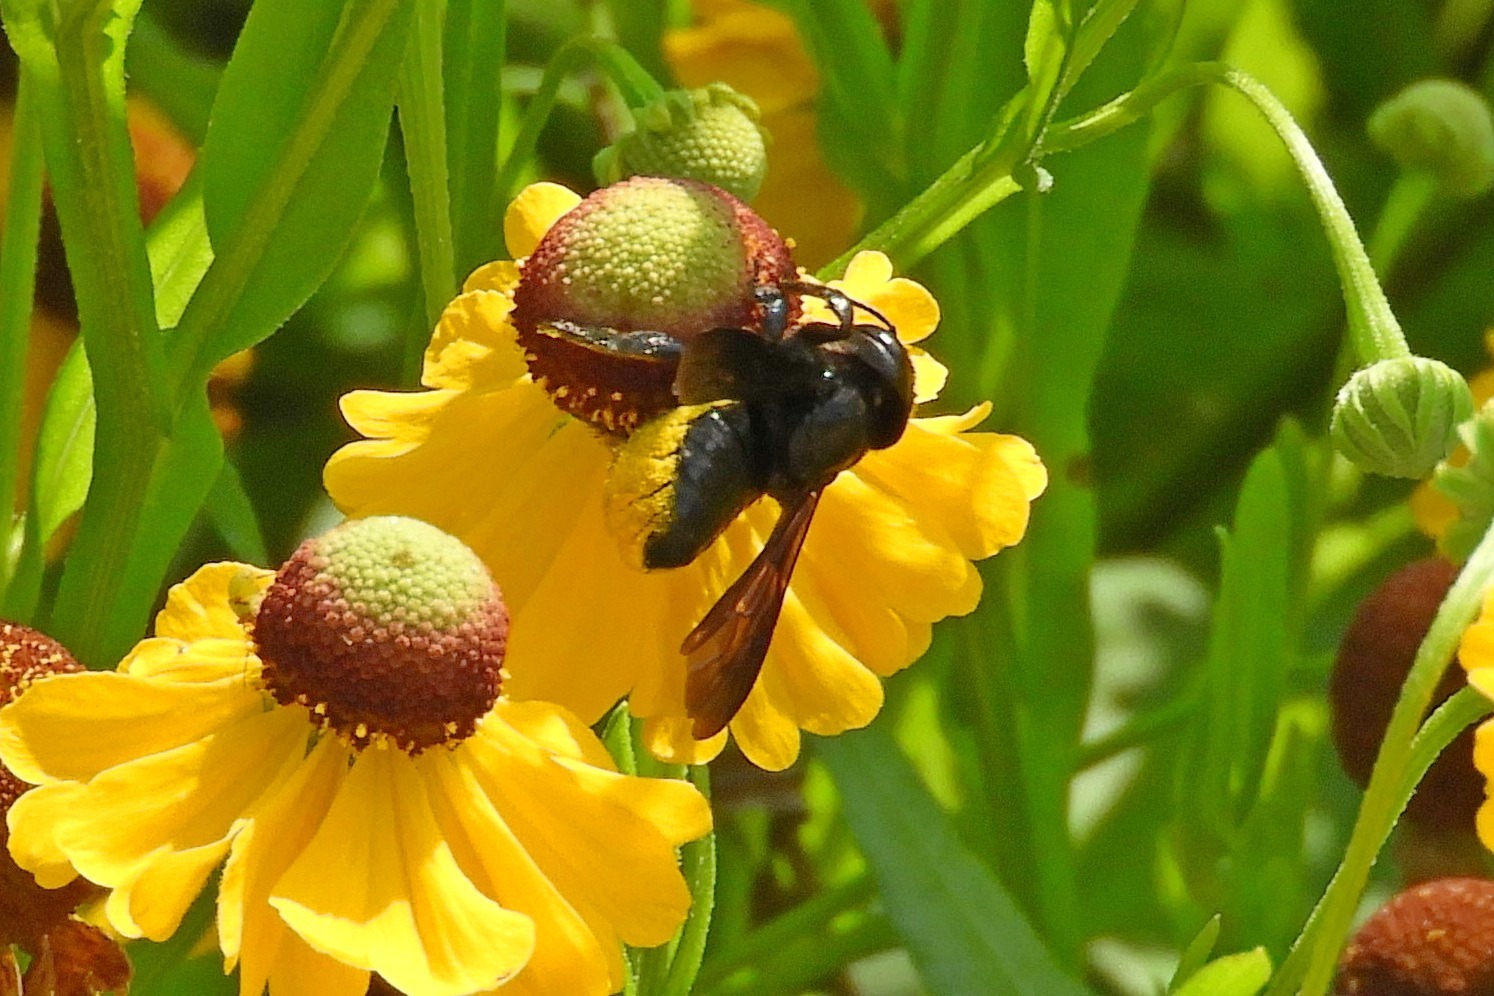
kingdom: Animalia
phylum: Arthropoda
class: Insecta
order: Hymenoptera
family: Megachilidae
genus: Megachile
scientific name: Megachile xylocopoides
